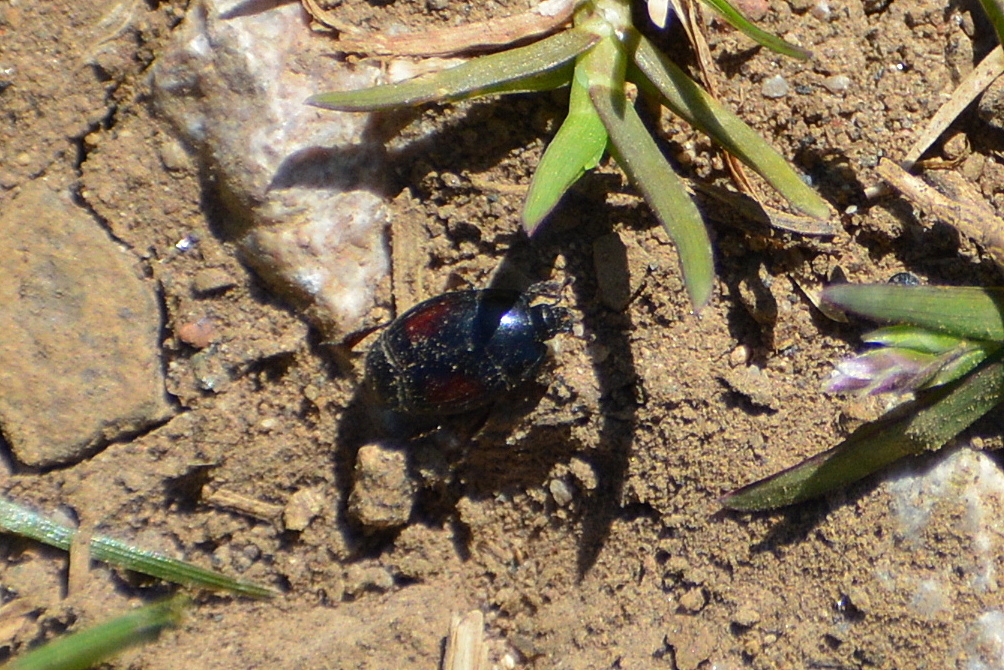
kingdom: Animalia
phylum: Arthropoda
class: Insecta
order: Coleoptera
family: Histeridae
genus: Margarinotus
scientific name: Margarinotus purpurascens
